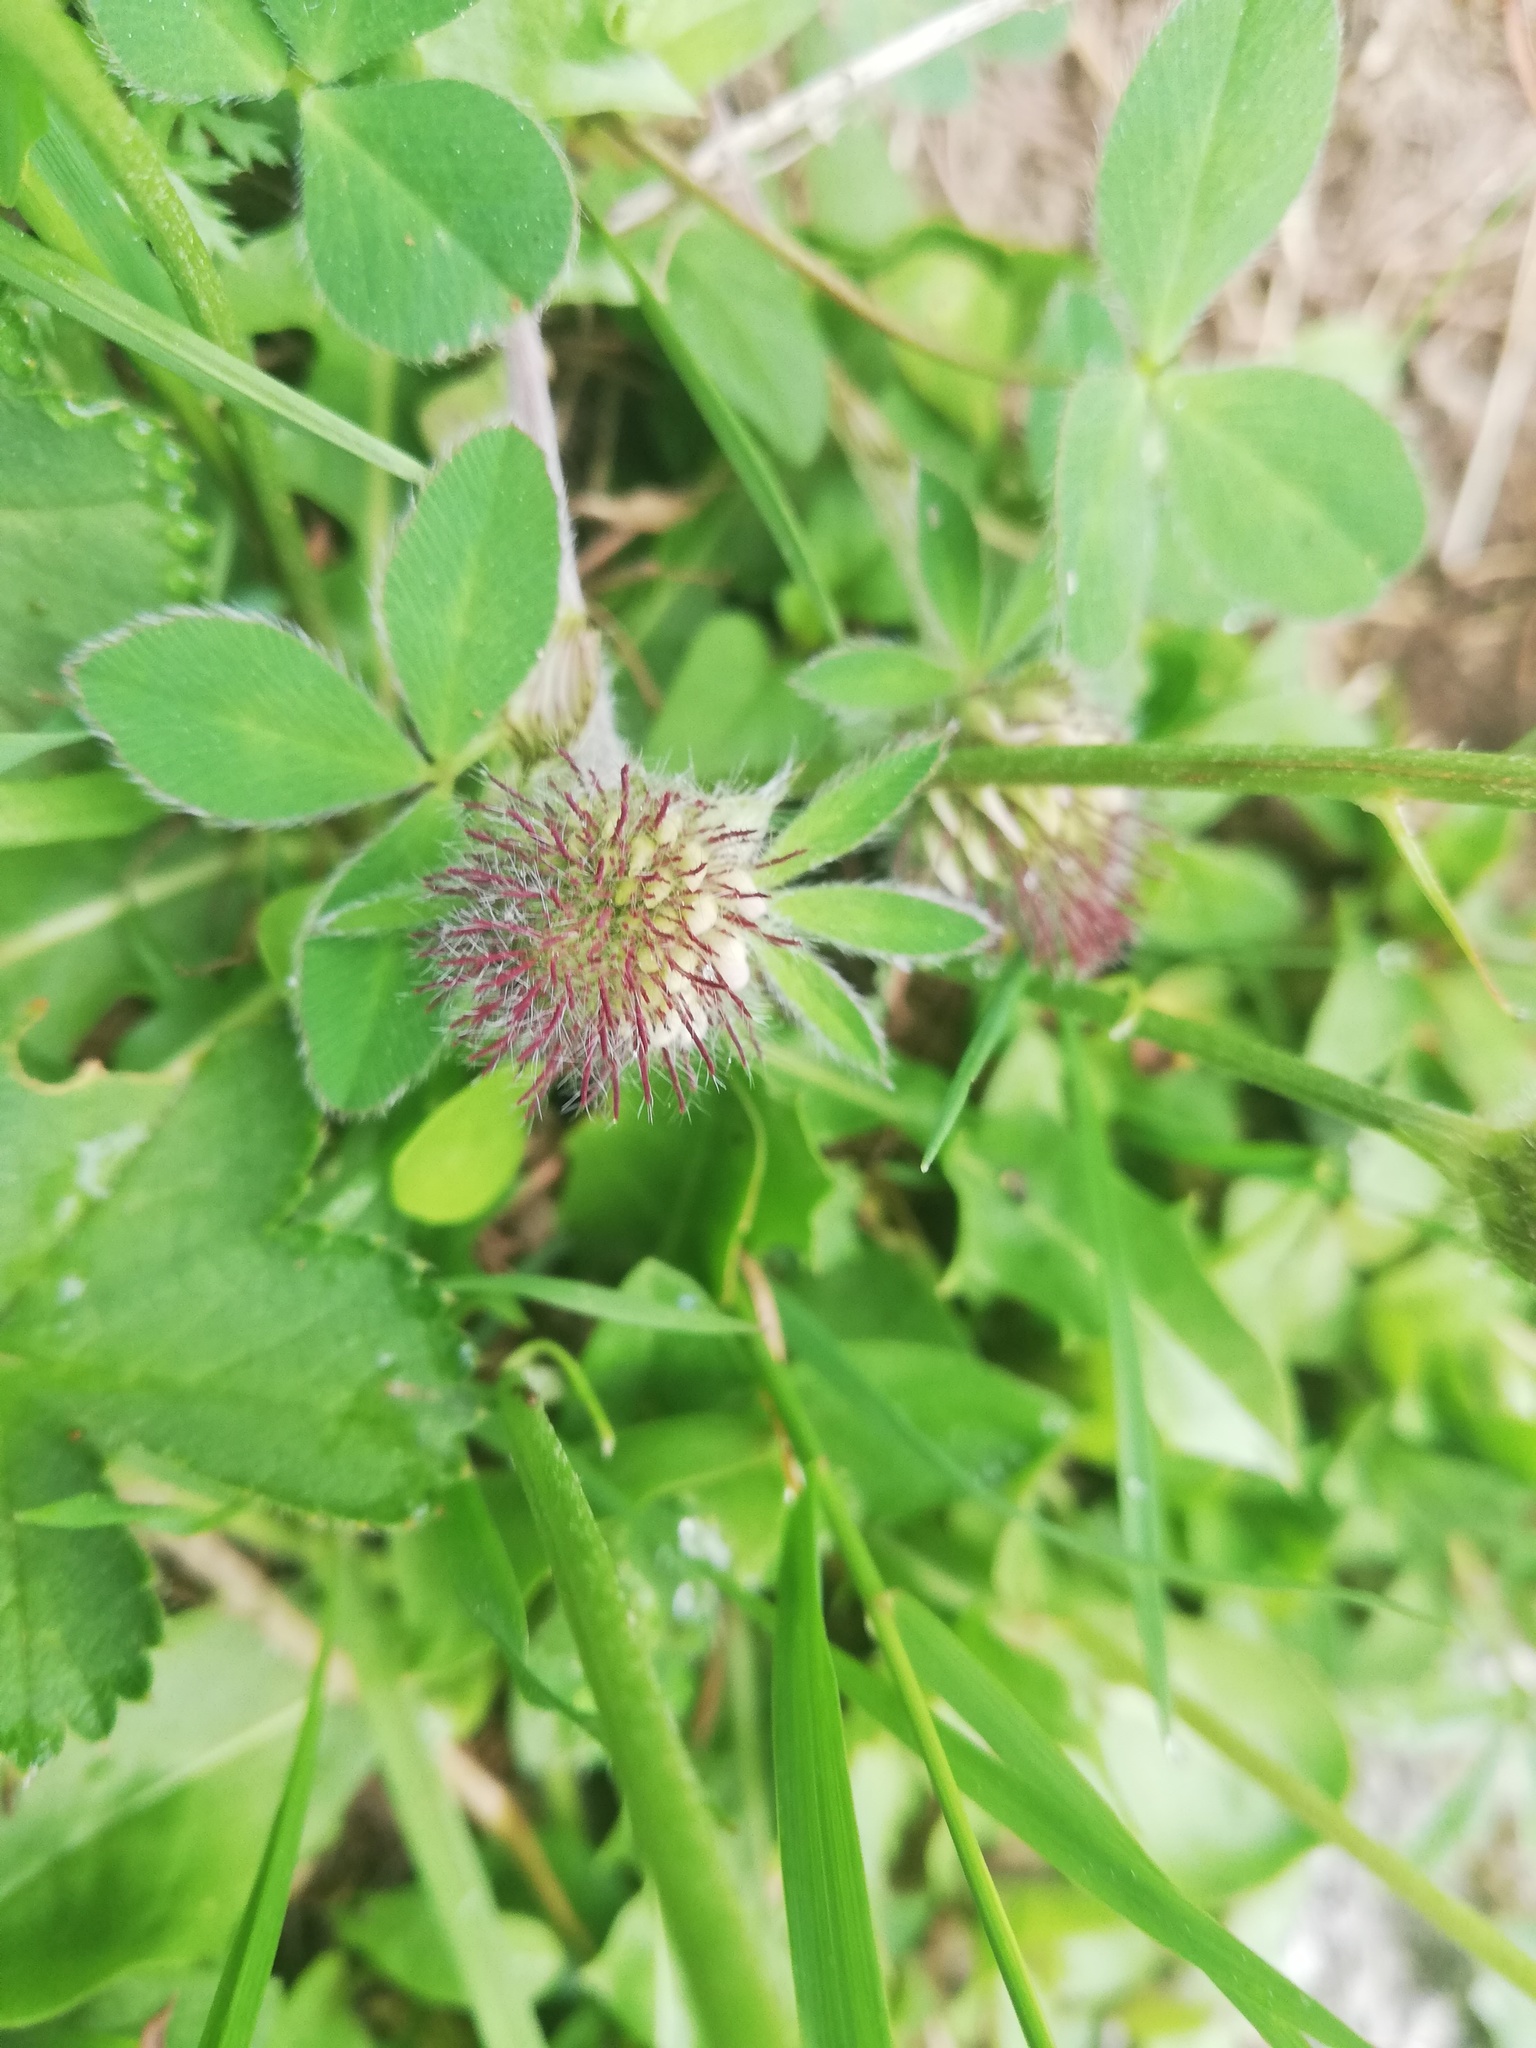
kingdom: Plantae
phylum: Tracheophyta
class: Magnoliopsida
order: Fabales
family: Fabaceae
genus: Trifolium
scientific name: Trifolium pratense
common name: Red clover
